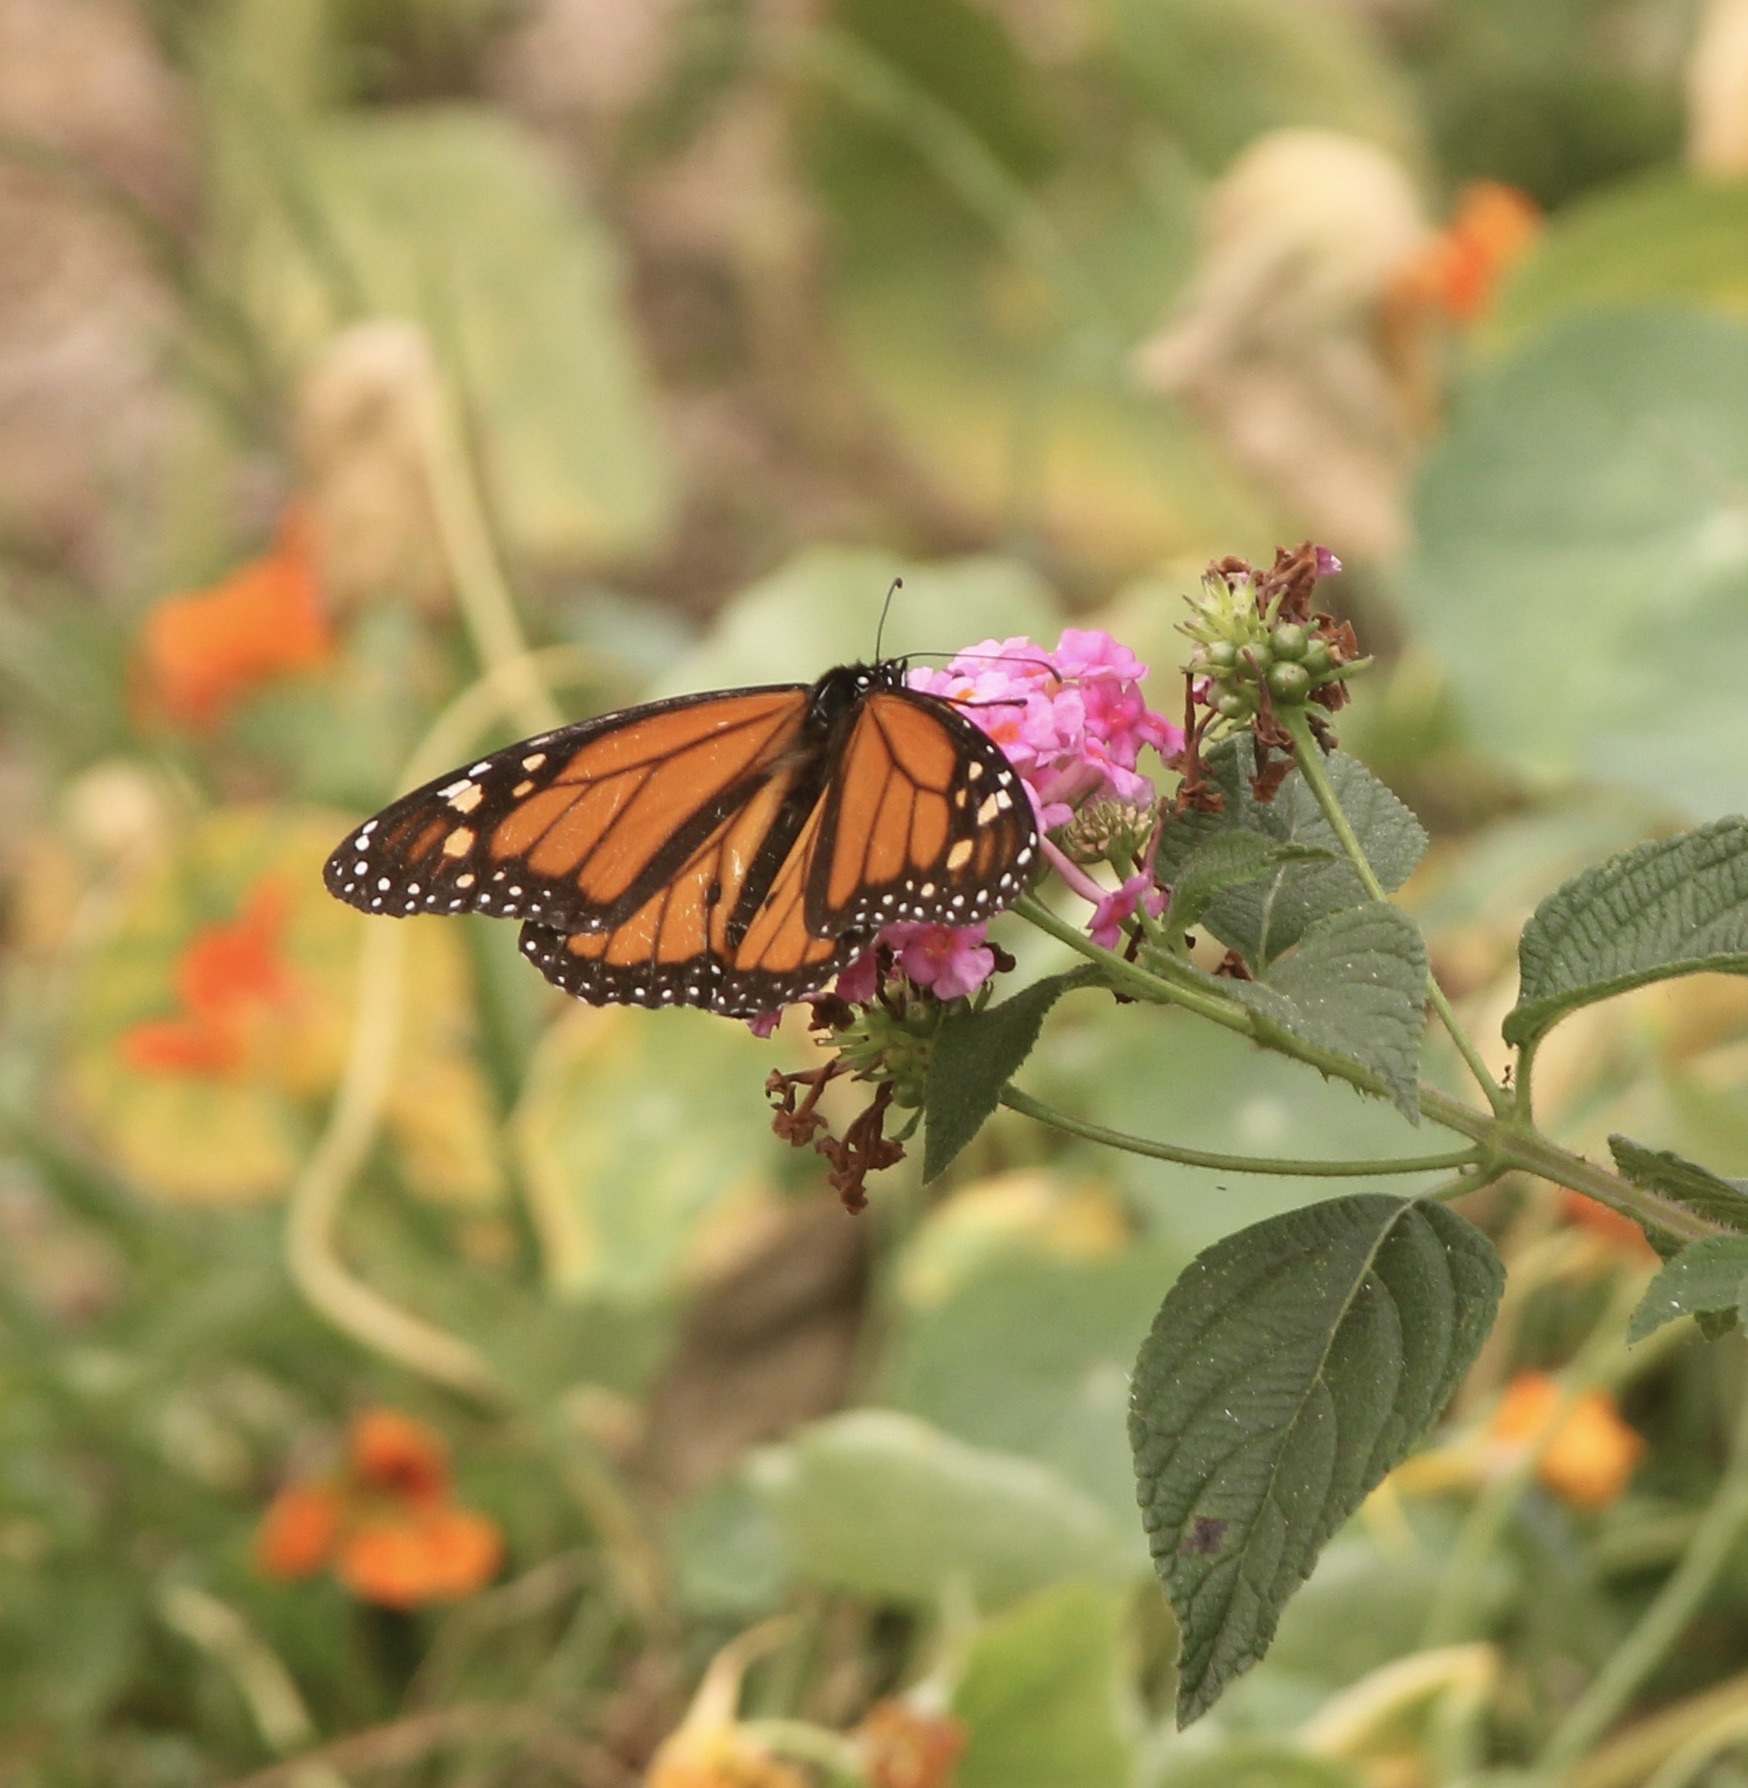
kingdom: Animalia
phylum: Arthropoda
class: Insecta
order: Lepidoptera
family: Nymphalidae
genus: Danaus
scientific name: Danaus plexippus
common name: Monarch
